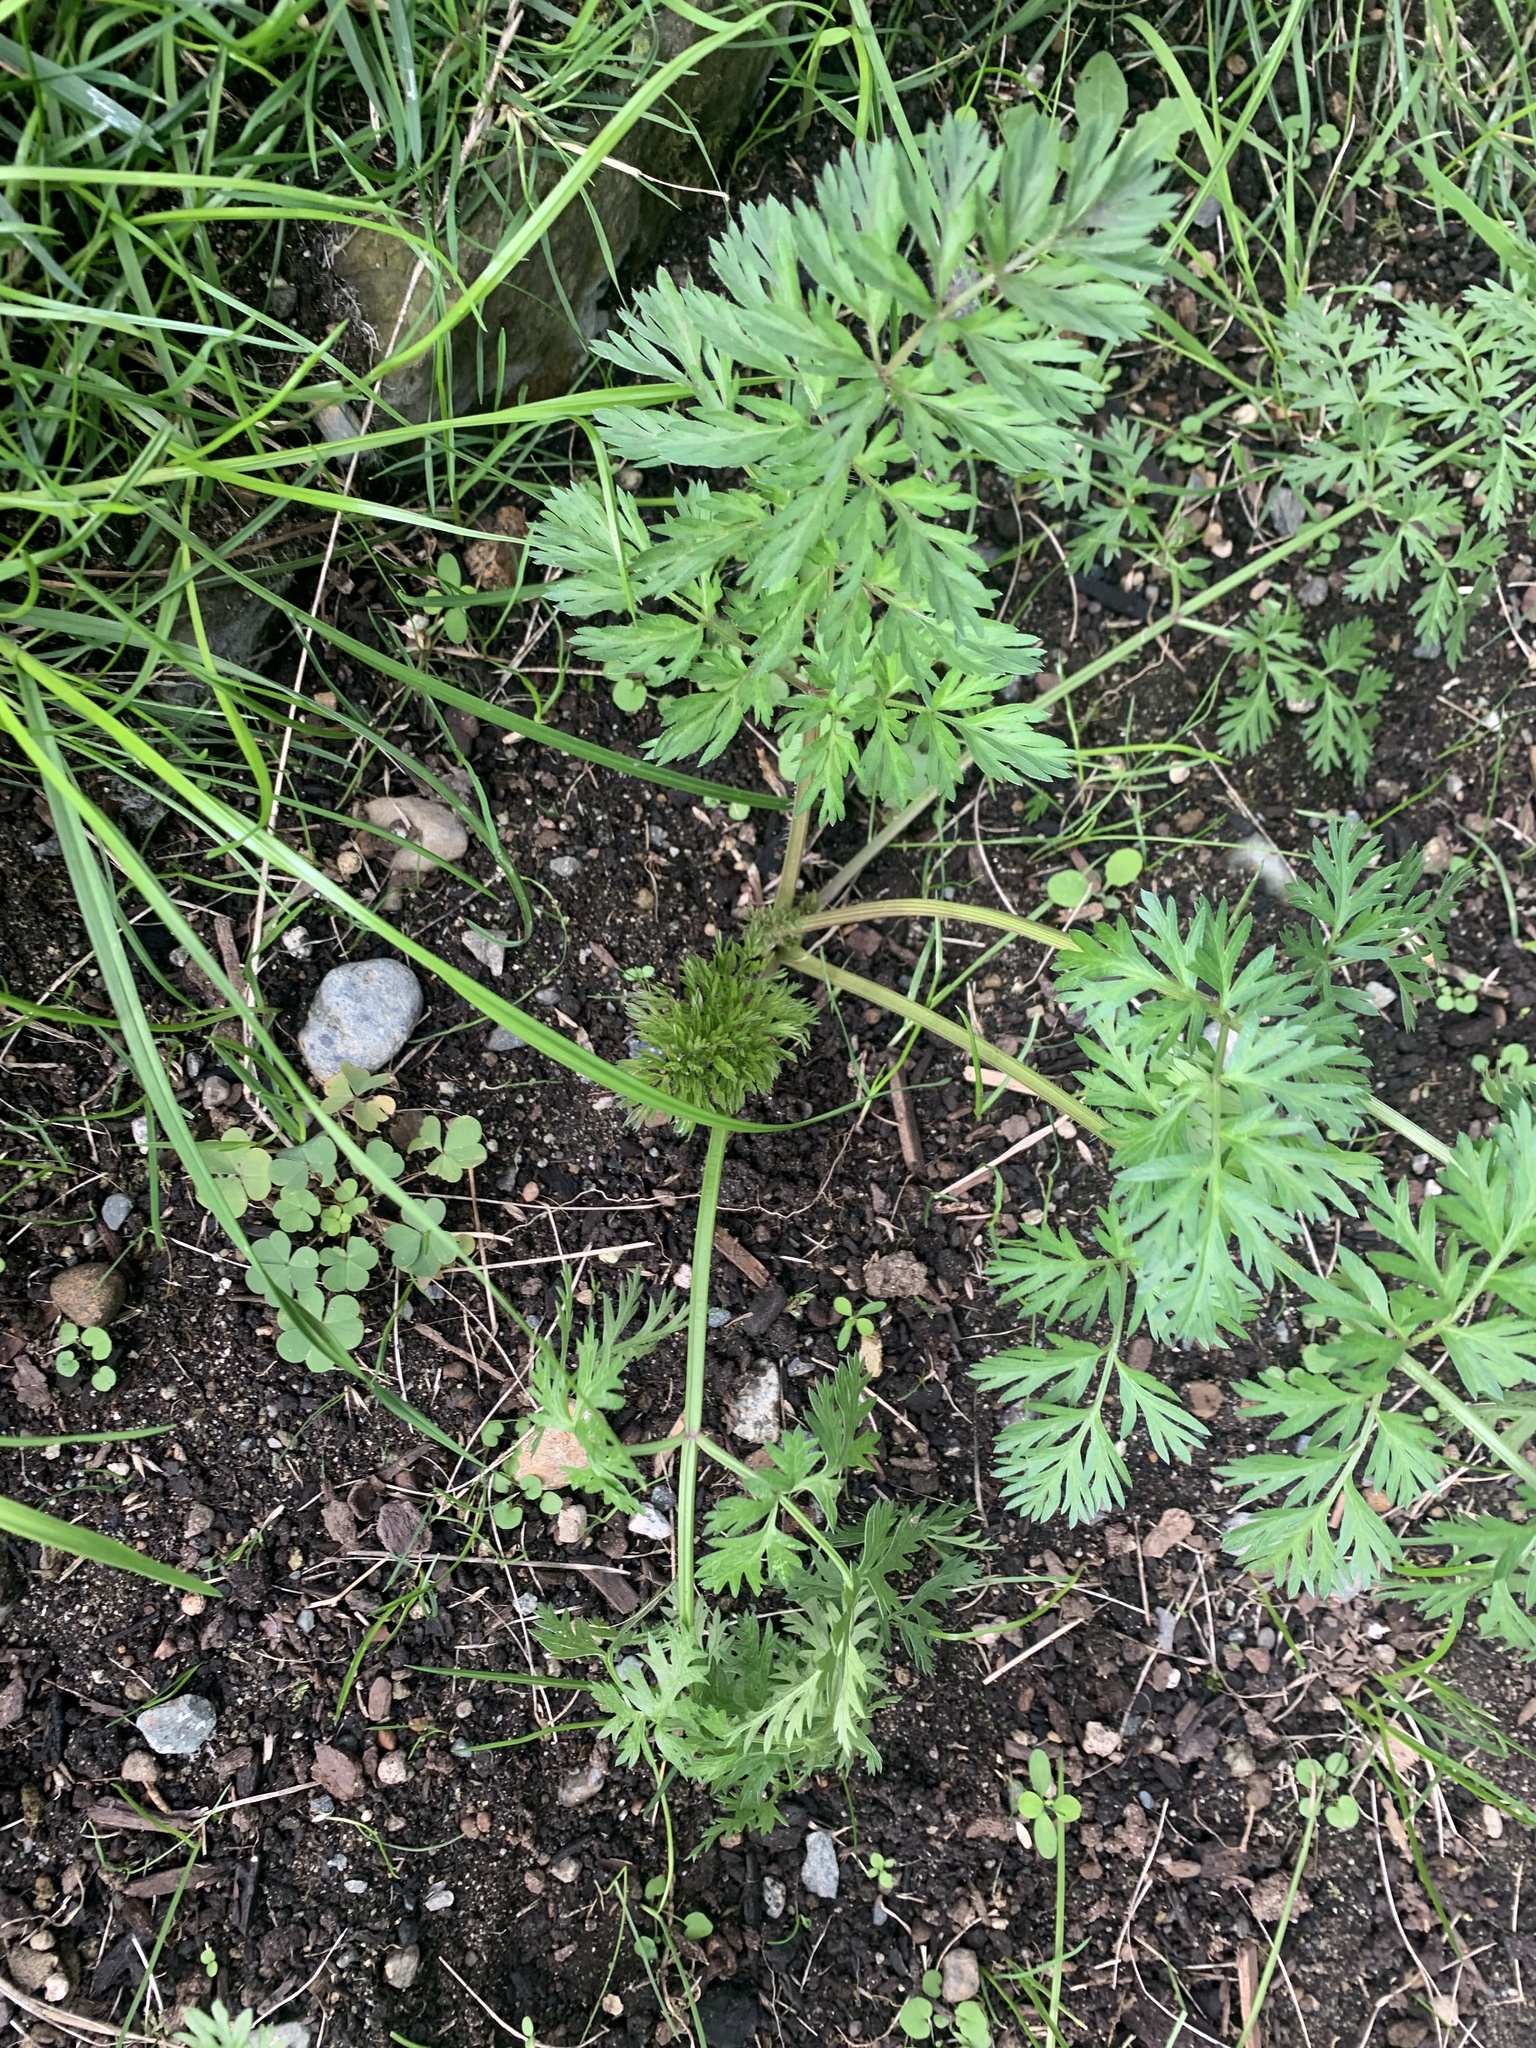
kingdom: Plantae
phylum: Tracheophyta
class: Magnoliopsida
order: Apiales
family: Apiaceae
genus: Daucus
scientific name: Daucus carota
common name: Wild carrot
